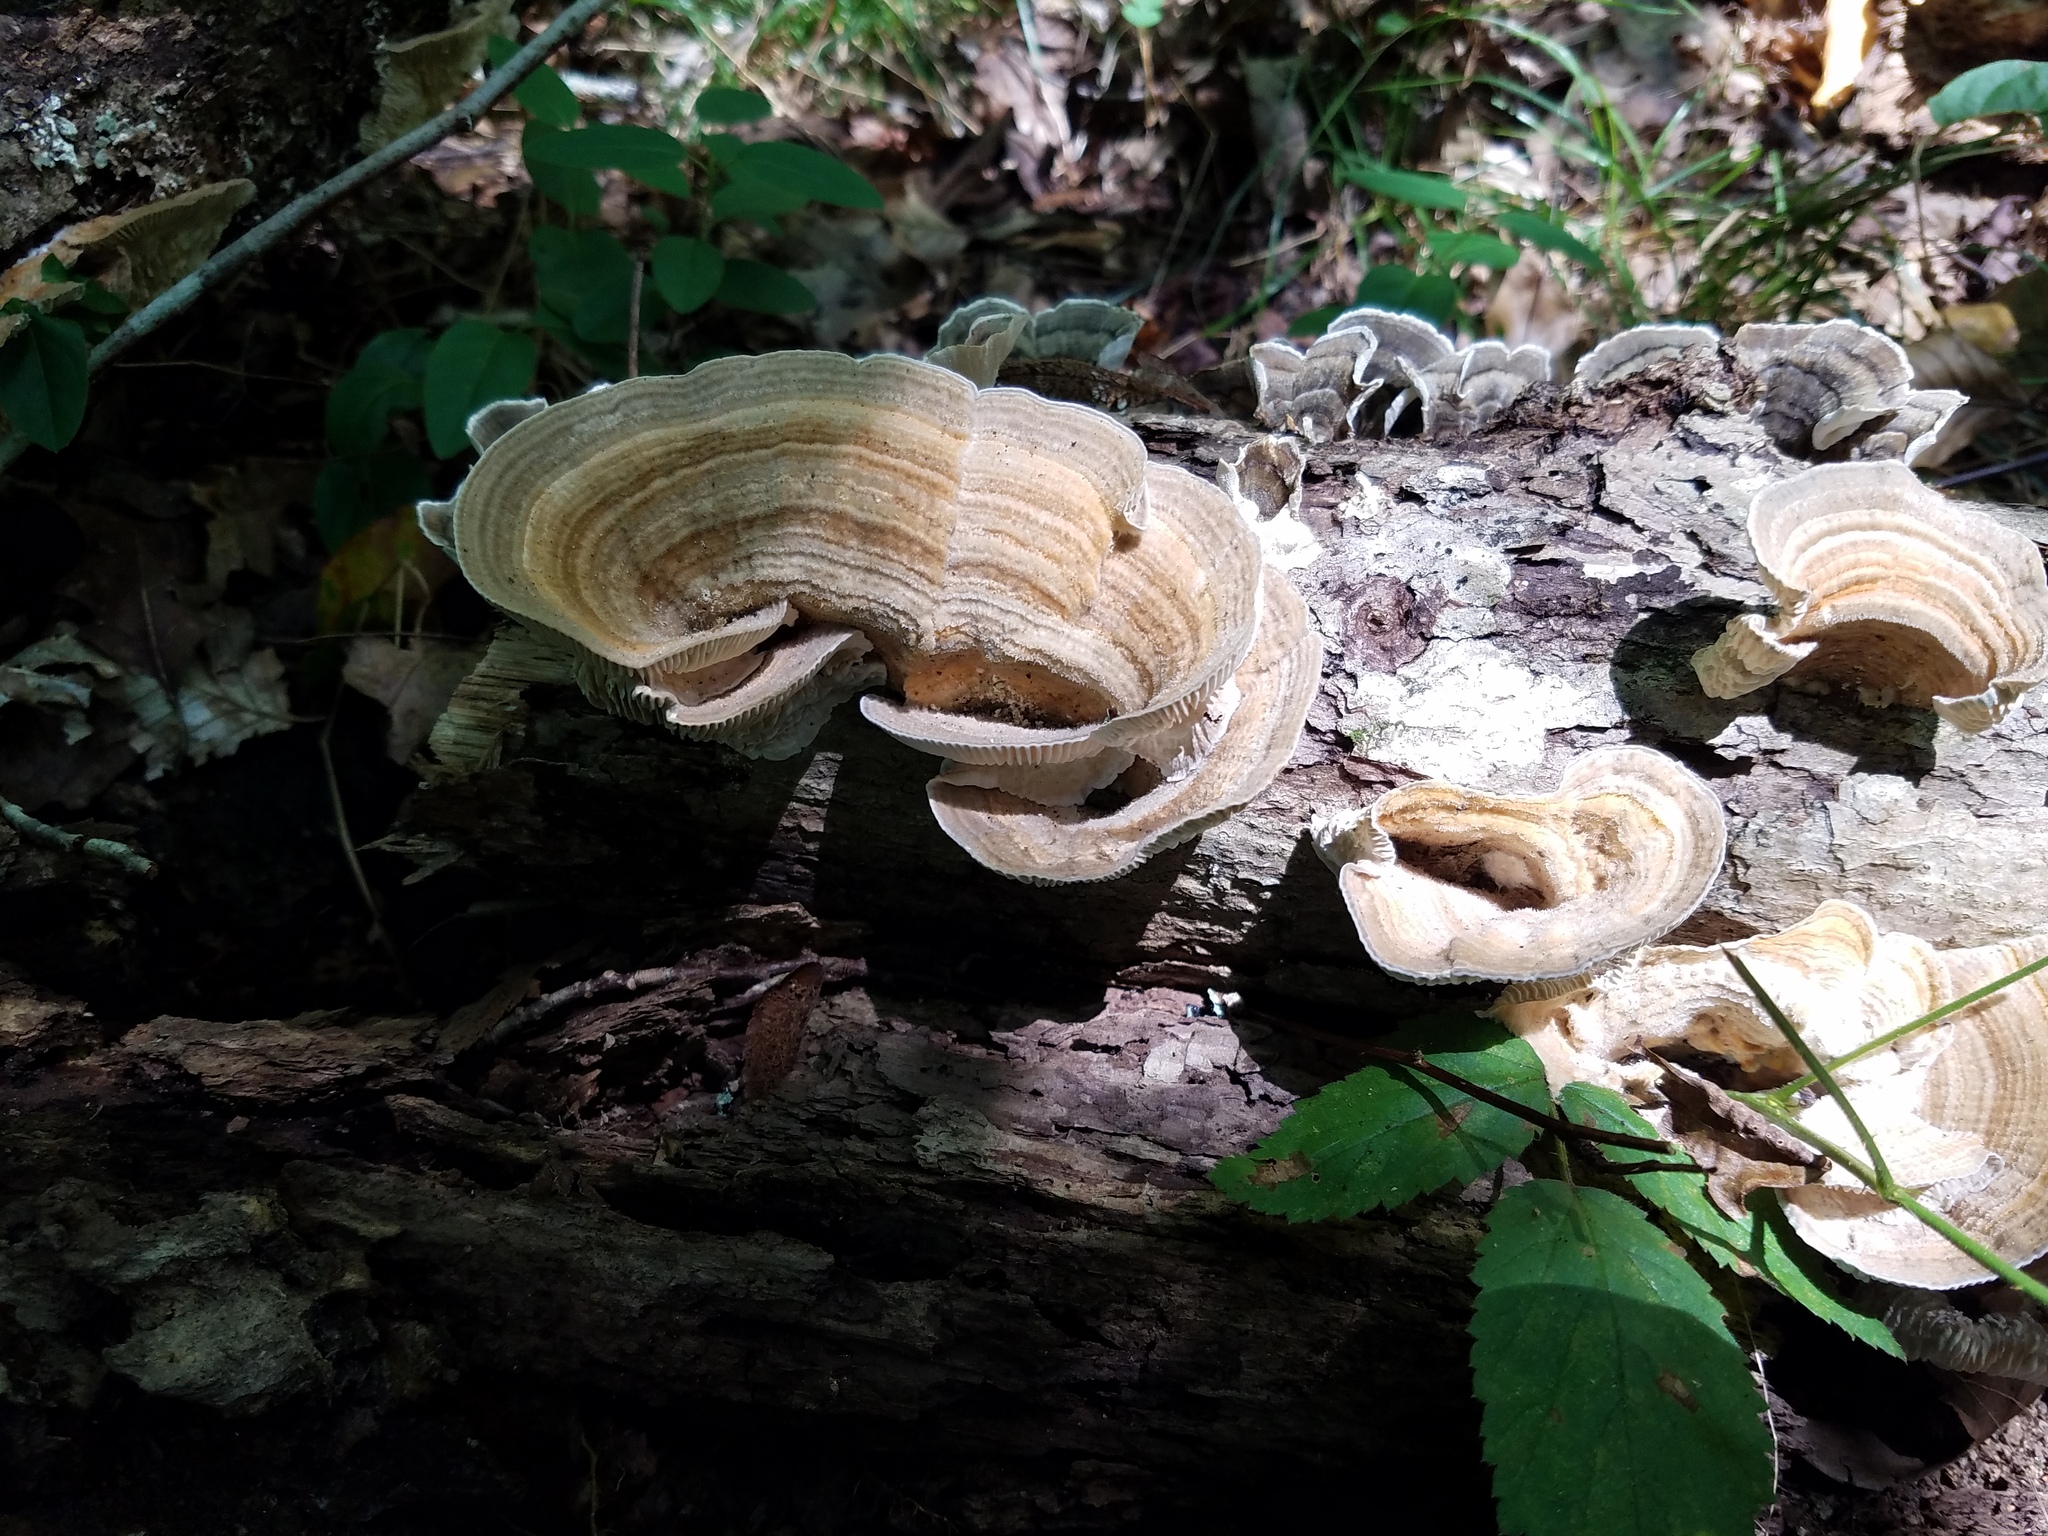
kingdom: Fungi
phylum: Basidiomycota
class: Agaricomycetes
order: Polyporales
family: Polyporaceae
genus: Lenzites
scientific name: Lenzites betulinus
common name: Birch mazegill
